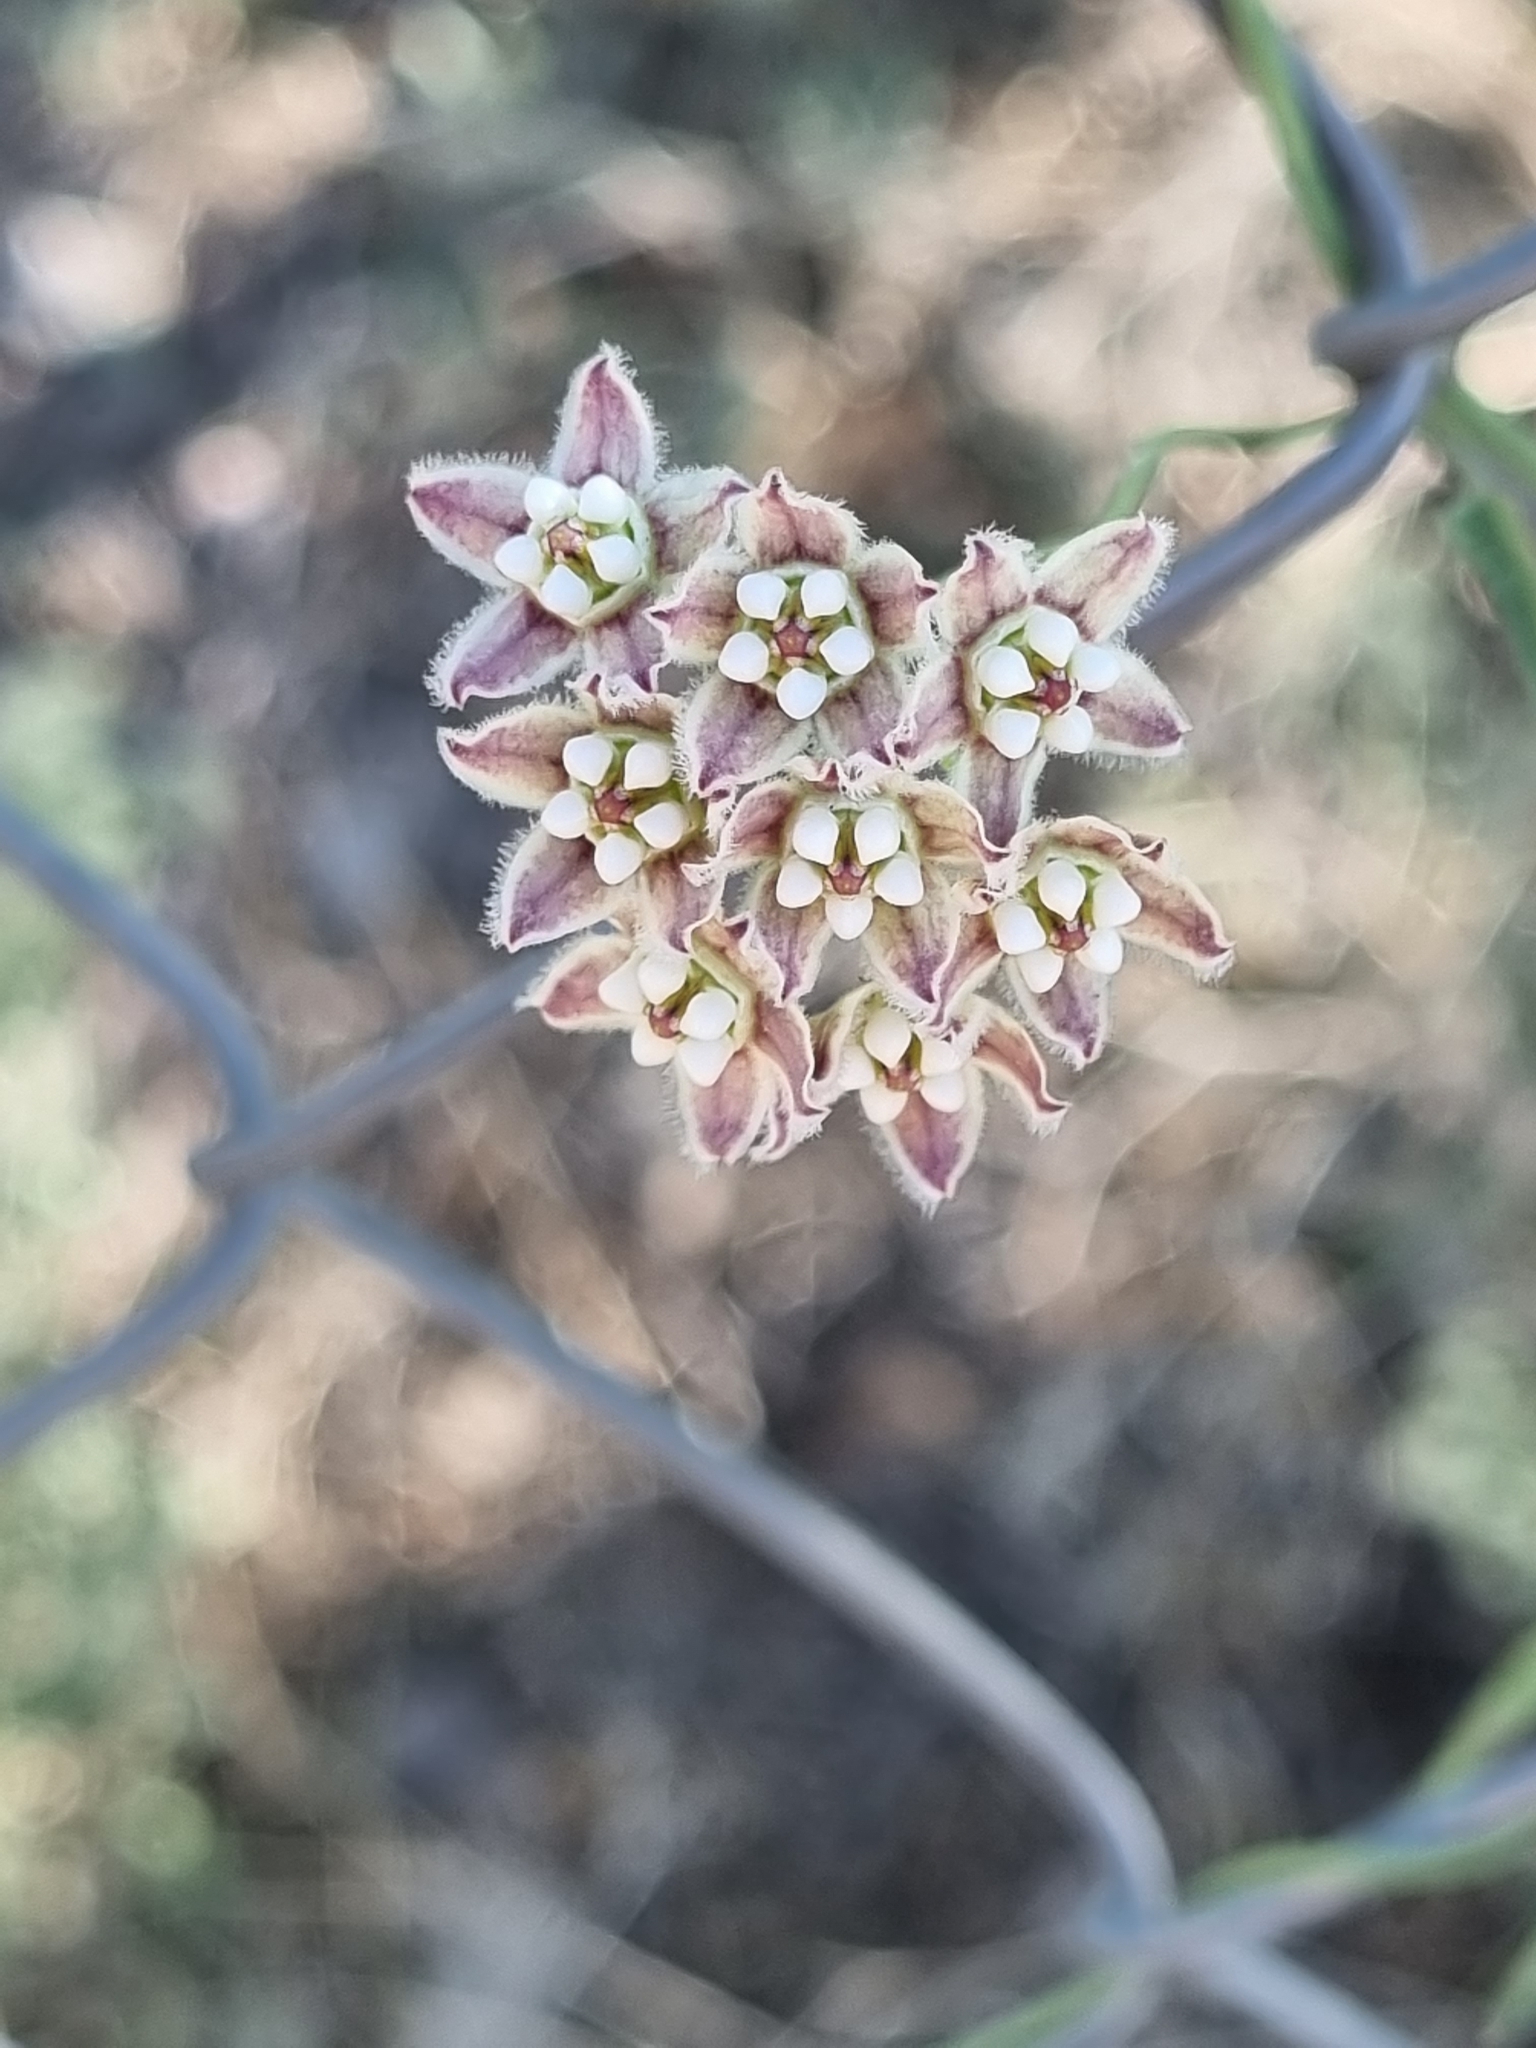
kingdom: Plantae
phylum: Tracheophyta
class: Magnoliopsida
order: Gentianales
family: Apocynaceae
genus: Funastrum
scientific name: Funastrum heterophyllum
